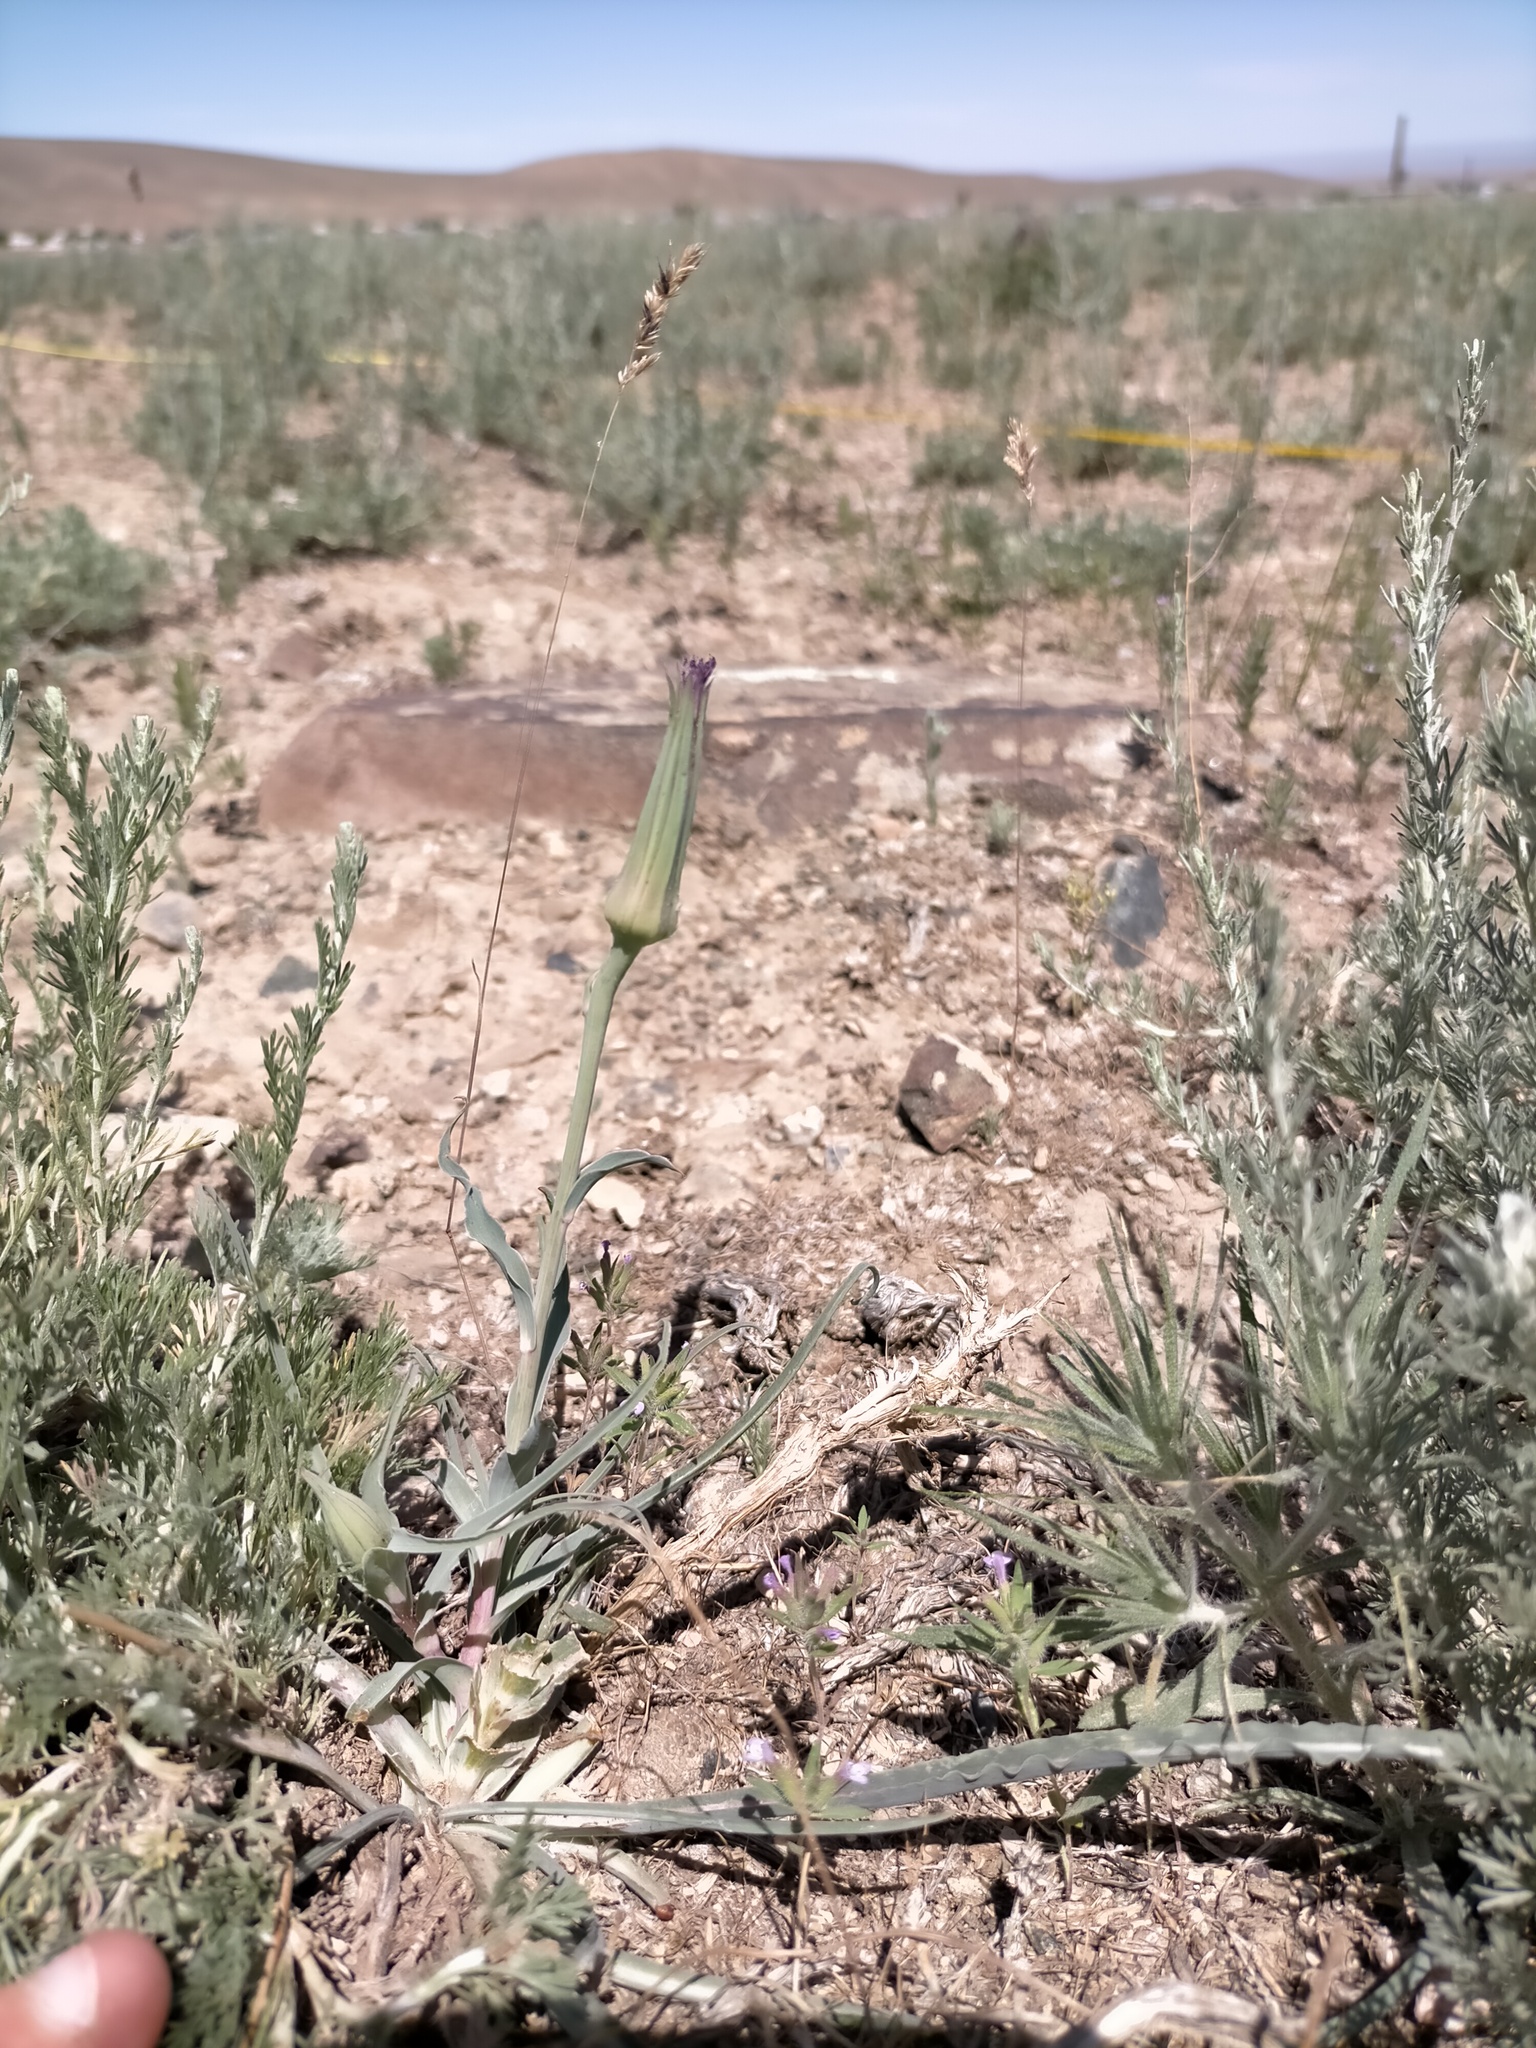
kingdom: Plantae
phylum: Tracheophyta
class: Magnoliopsida
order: Asterales
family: Asteraceae
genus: Tragopogon
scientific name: Tragopogon ruber
